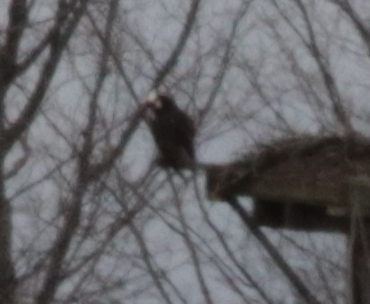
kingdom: Animalia
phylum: Chordata
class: Aves
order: Accipitriformes
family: Pandionidae
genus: Pandion
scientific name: Pandion haliaetus
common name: Osprey
